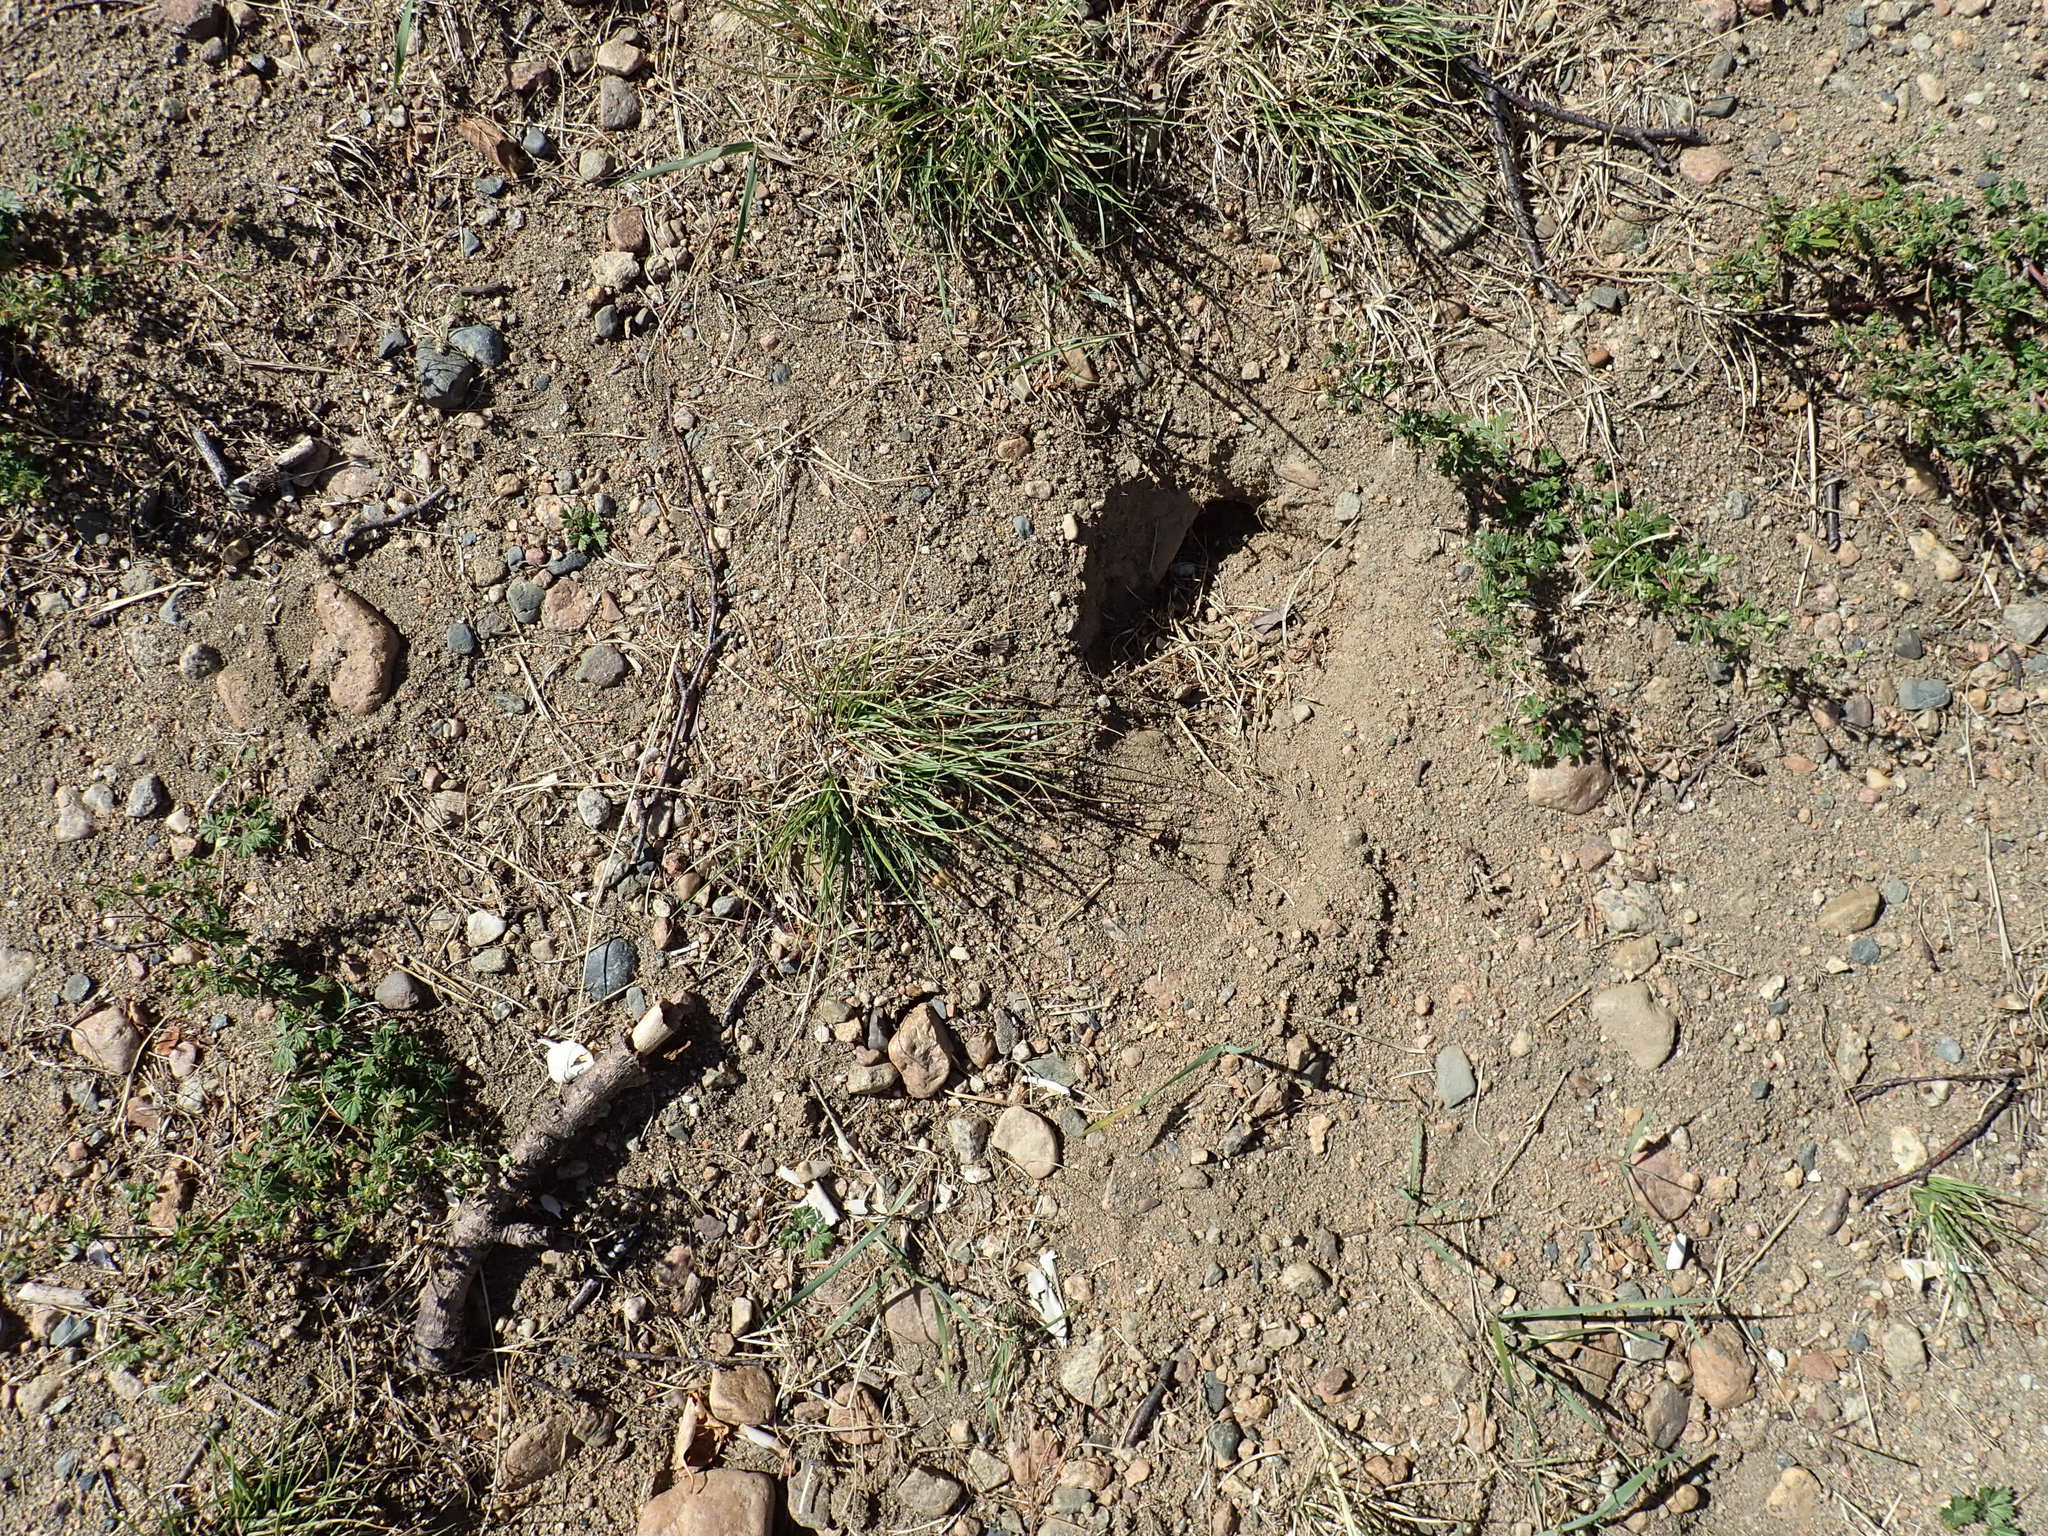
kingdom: Animalia
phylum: Chordata
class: Testudines
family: Emydidae
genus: Chrysemys
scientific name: Chrysemys picta
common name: Painted turtle
